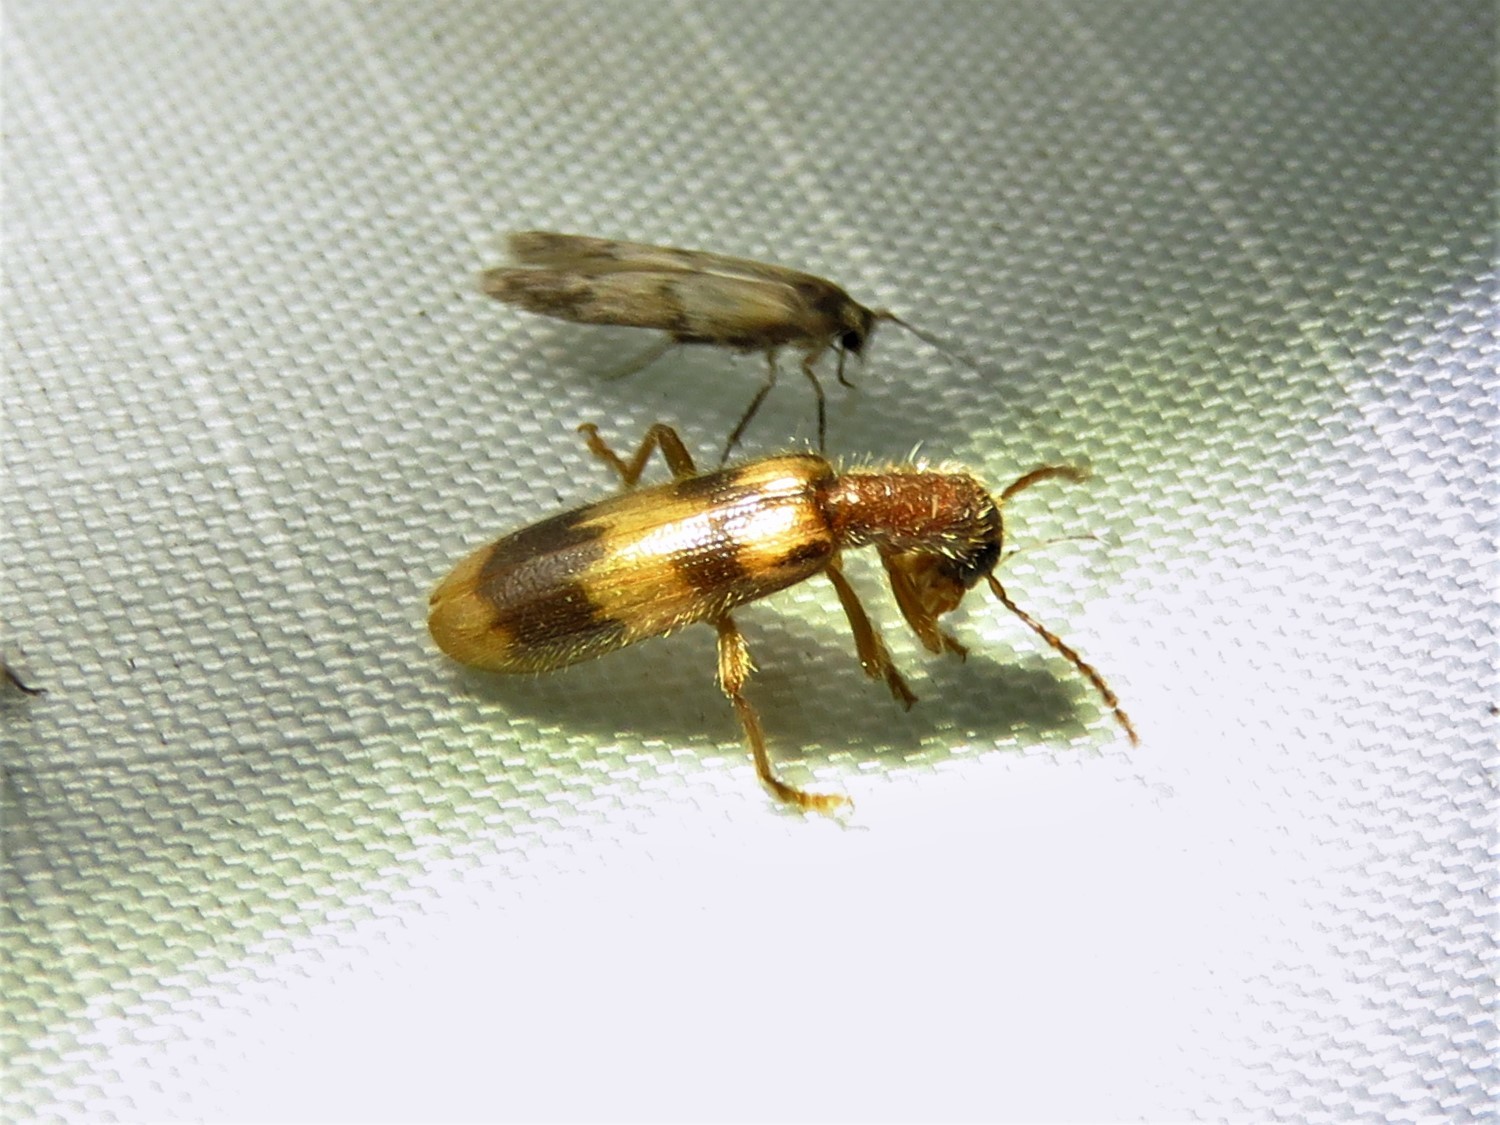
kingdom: Animalia
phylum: Arthropoda
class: Insecta
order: Coleoptera
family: Cleridae
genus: Cymatodera
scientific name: Cymatodera sirpata
